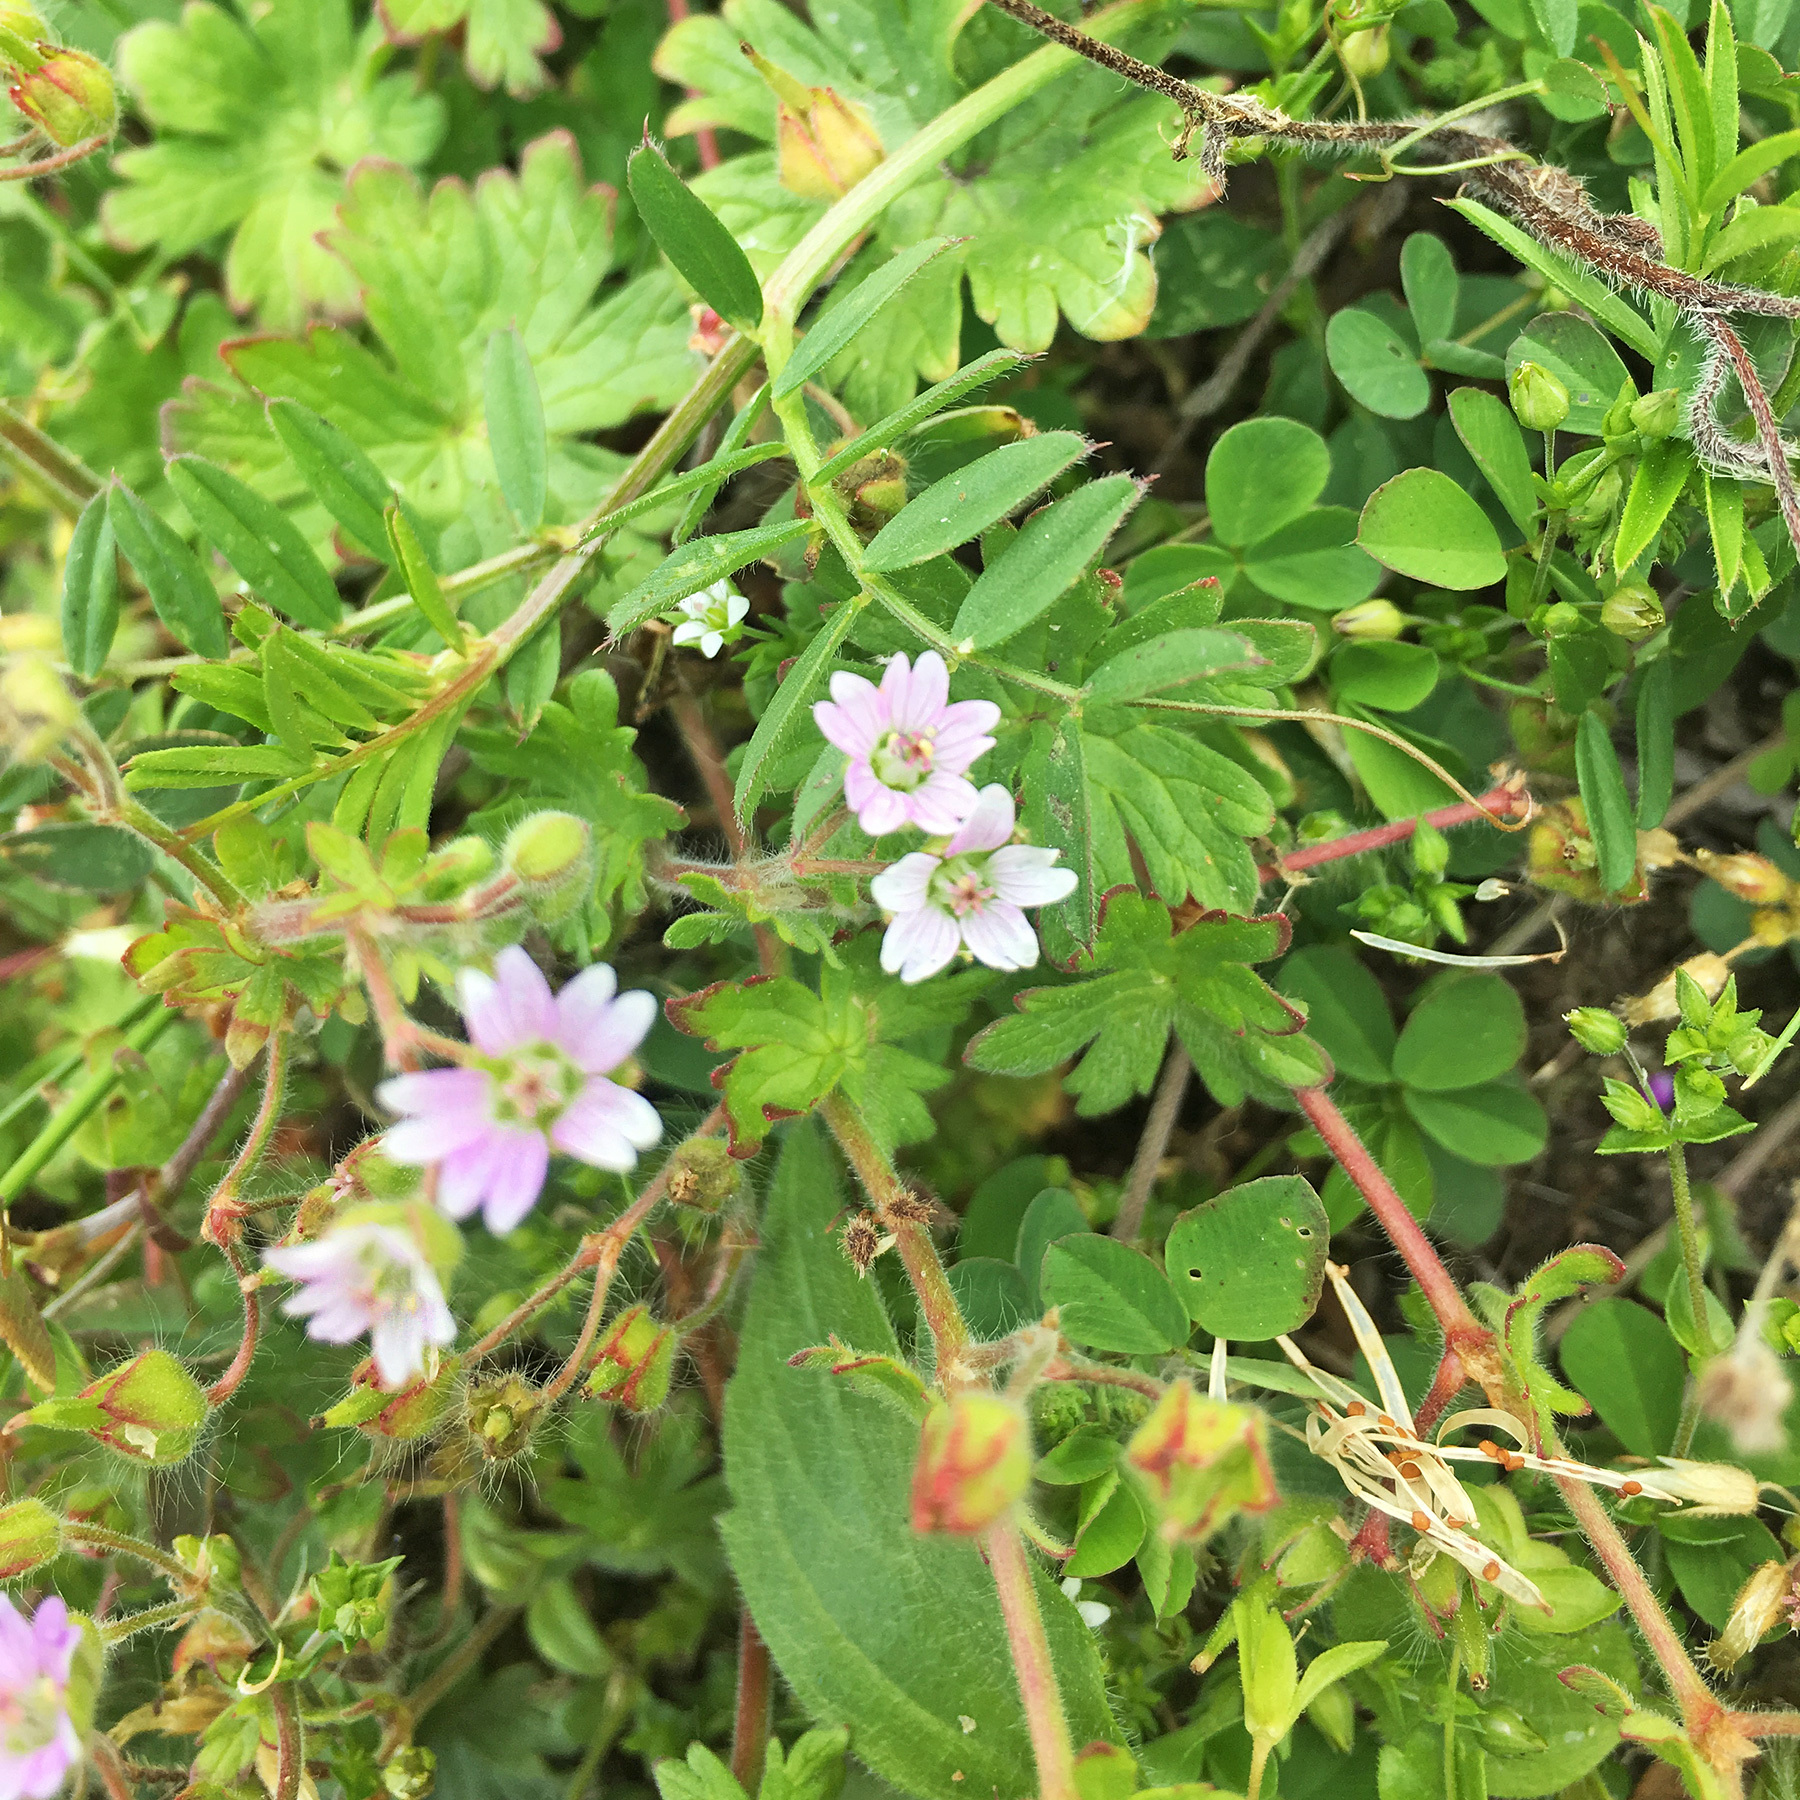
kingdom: Plantae
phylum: Tracheophyta
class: Magnoliopsida
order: Geraniales
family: Geraniaceae
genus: Geranium
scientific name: Geranium molle
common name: Dove's-foot crane's-bill
